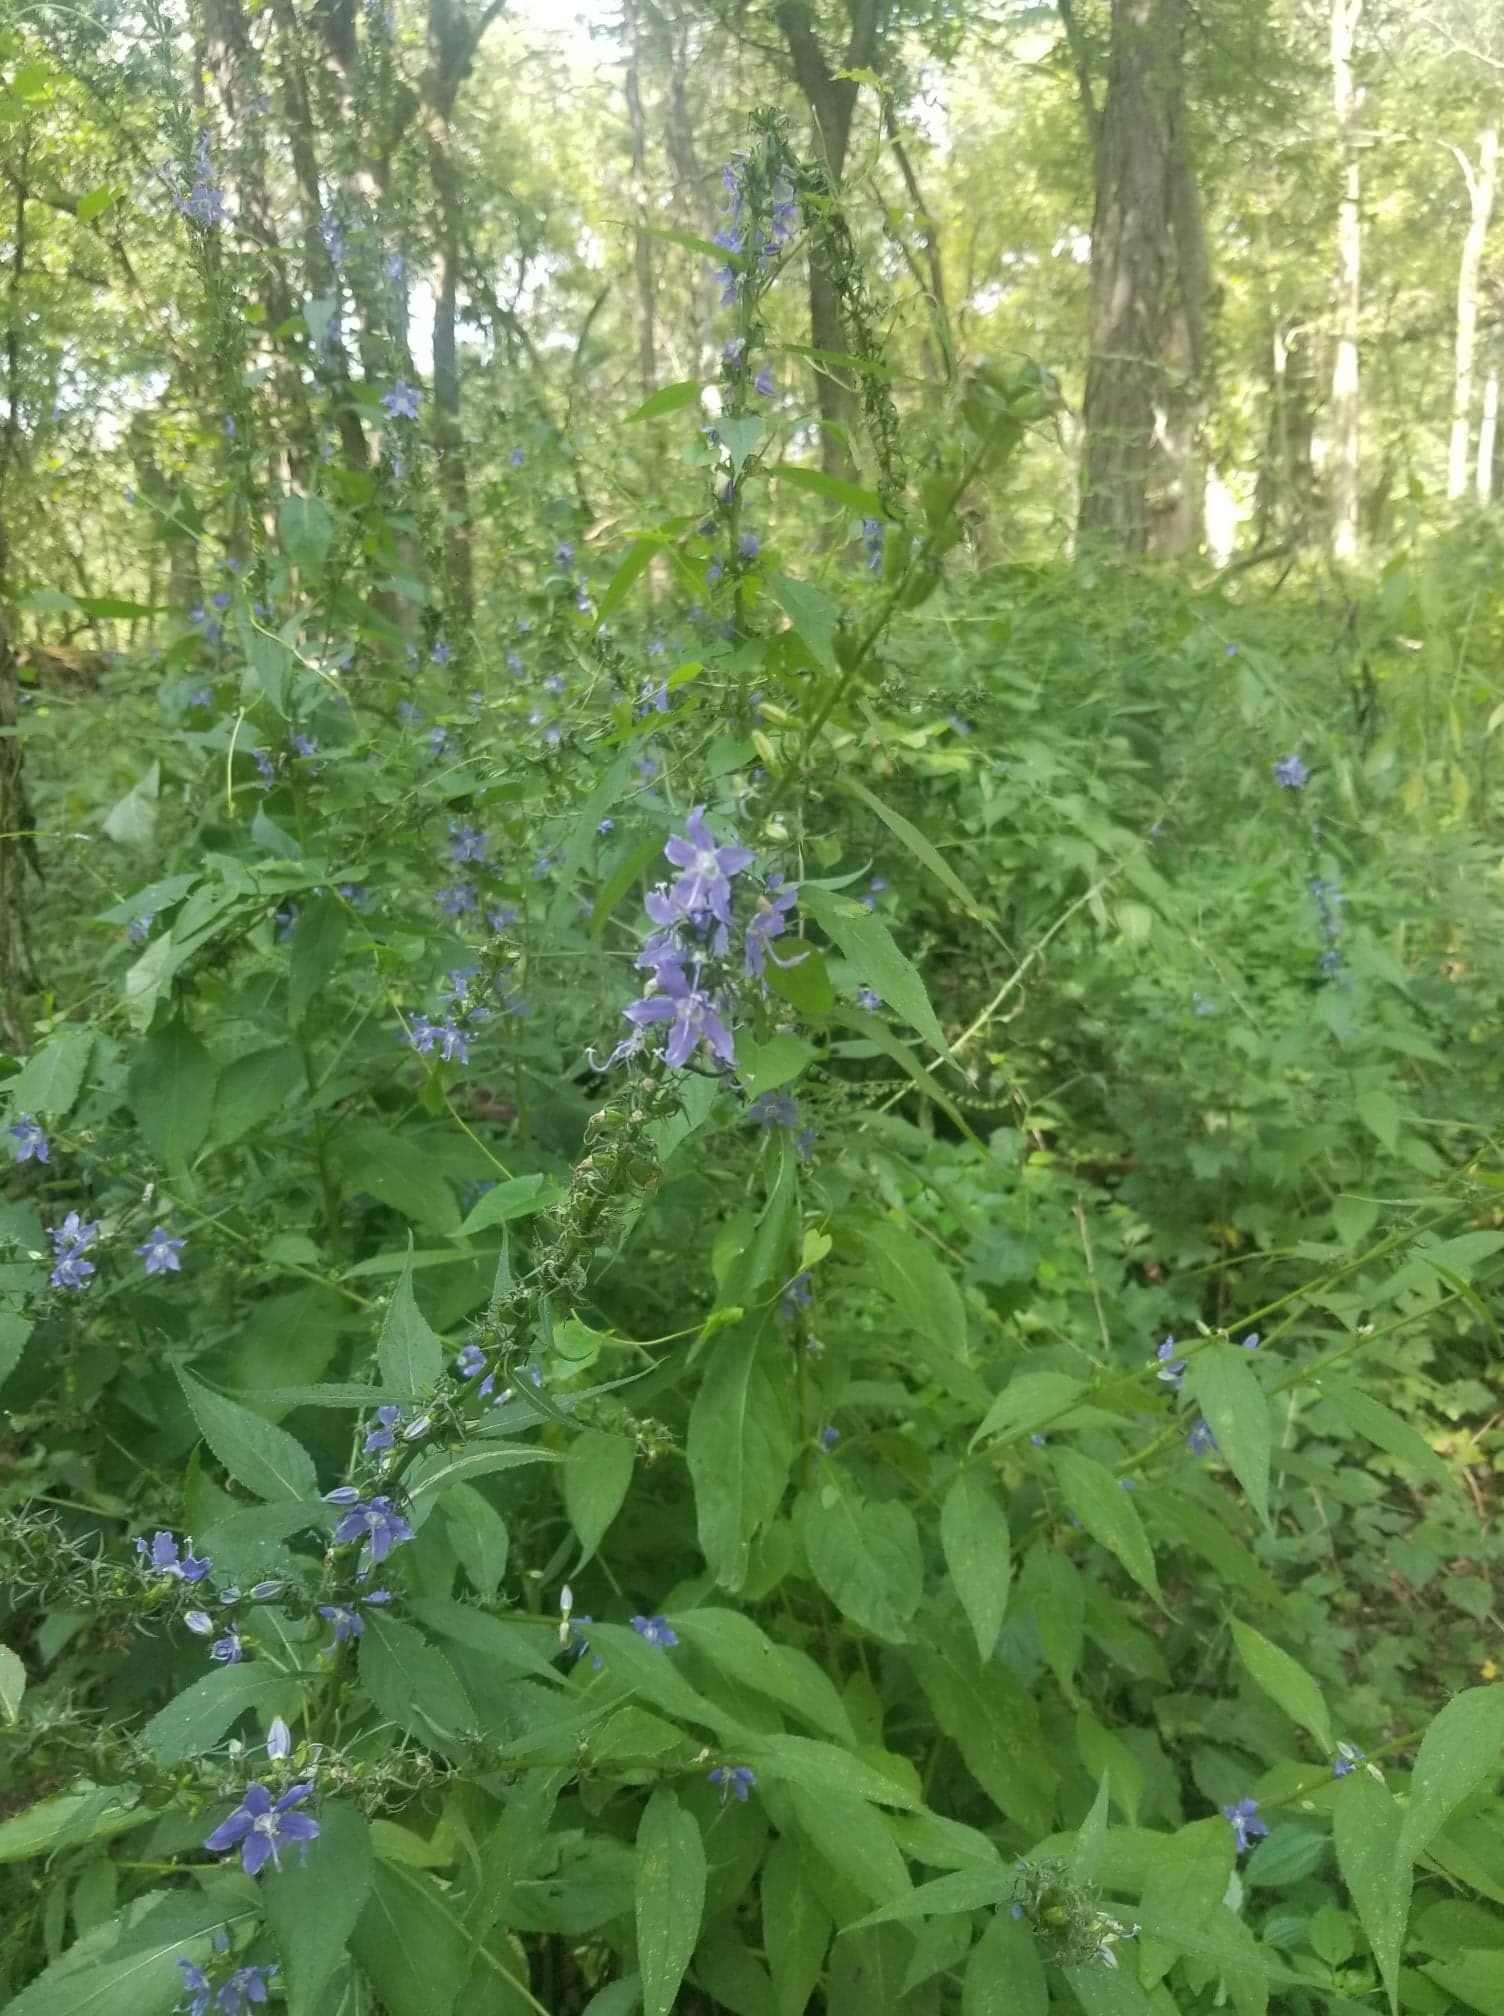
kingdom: Plantae
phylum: Tracheophyta
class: Magnoliopsida
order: Asterales
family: Campanulaceae
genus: Campanulastrum
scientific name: Campanulastrum americanum
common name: American bellflower
